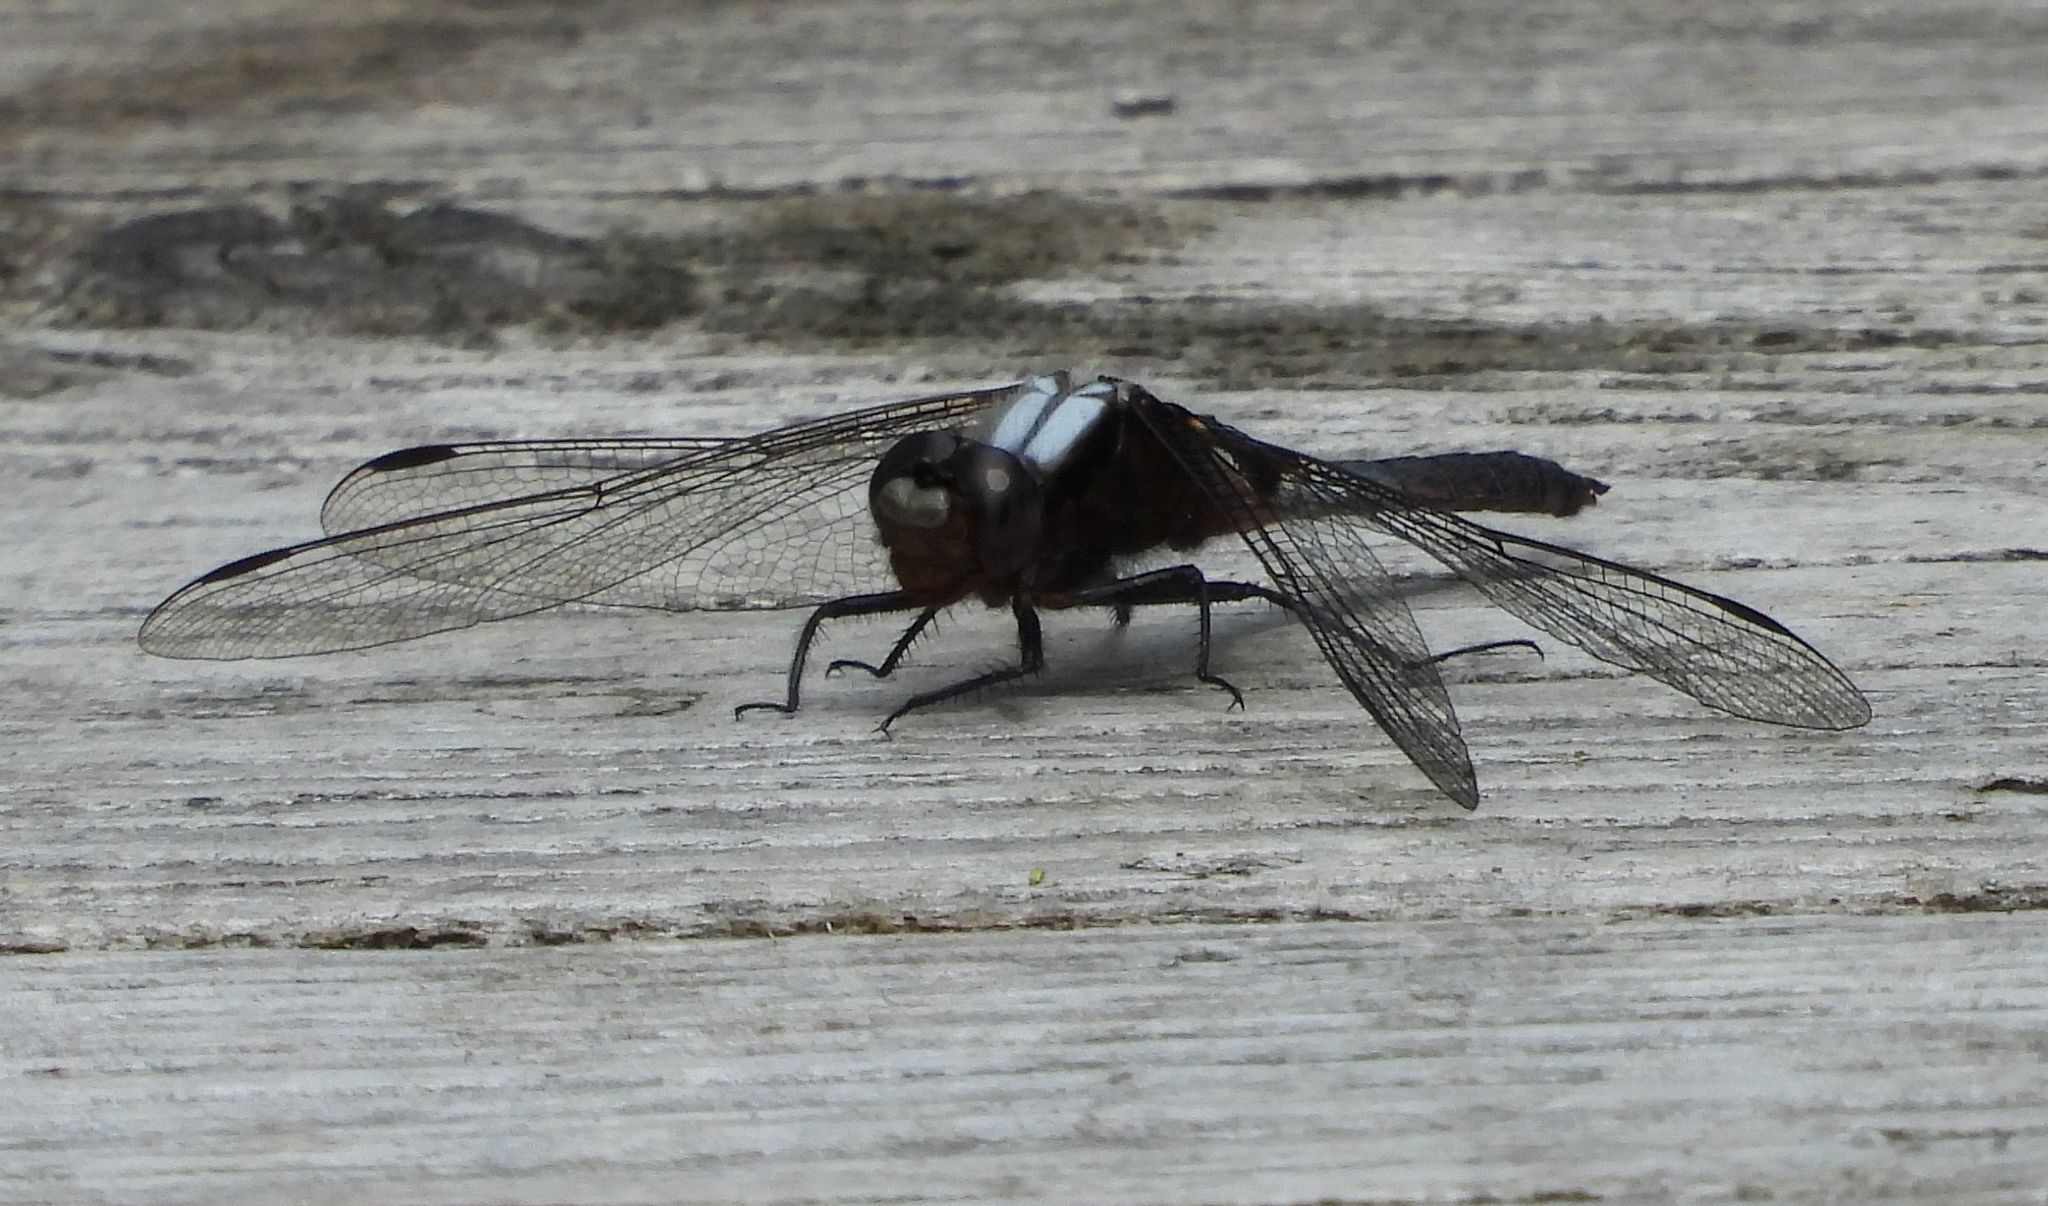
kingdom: Animalia
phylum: Arthropoda
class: Insecta
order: Odonata
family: Libellulidae
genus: Ladona
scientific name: Ladona julia
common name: Chalk-fronted corporal
